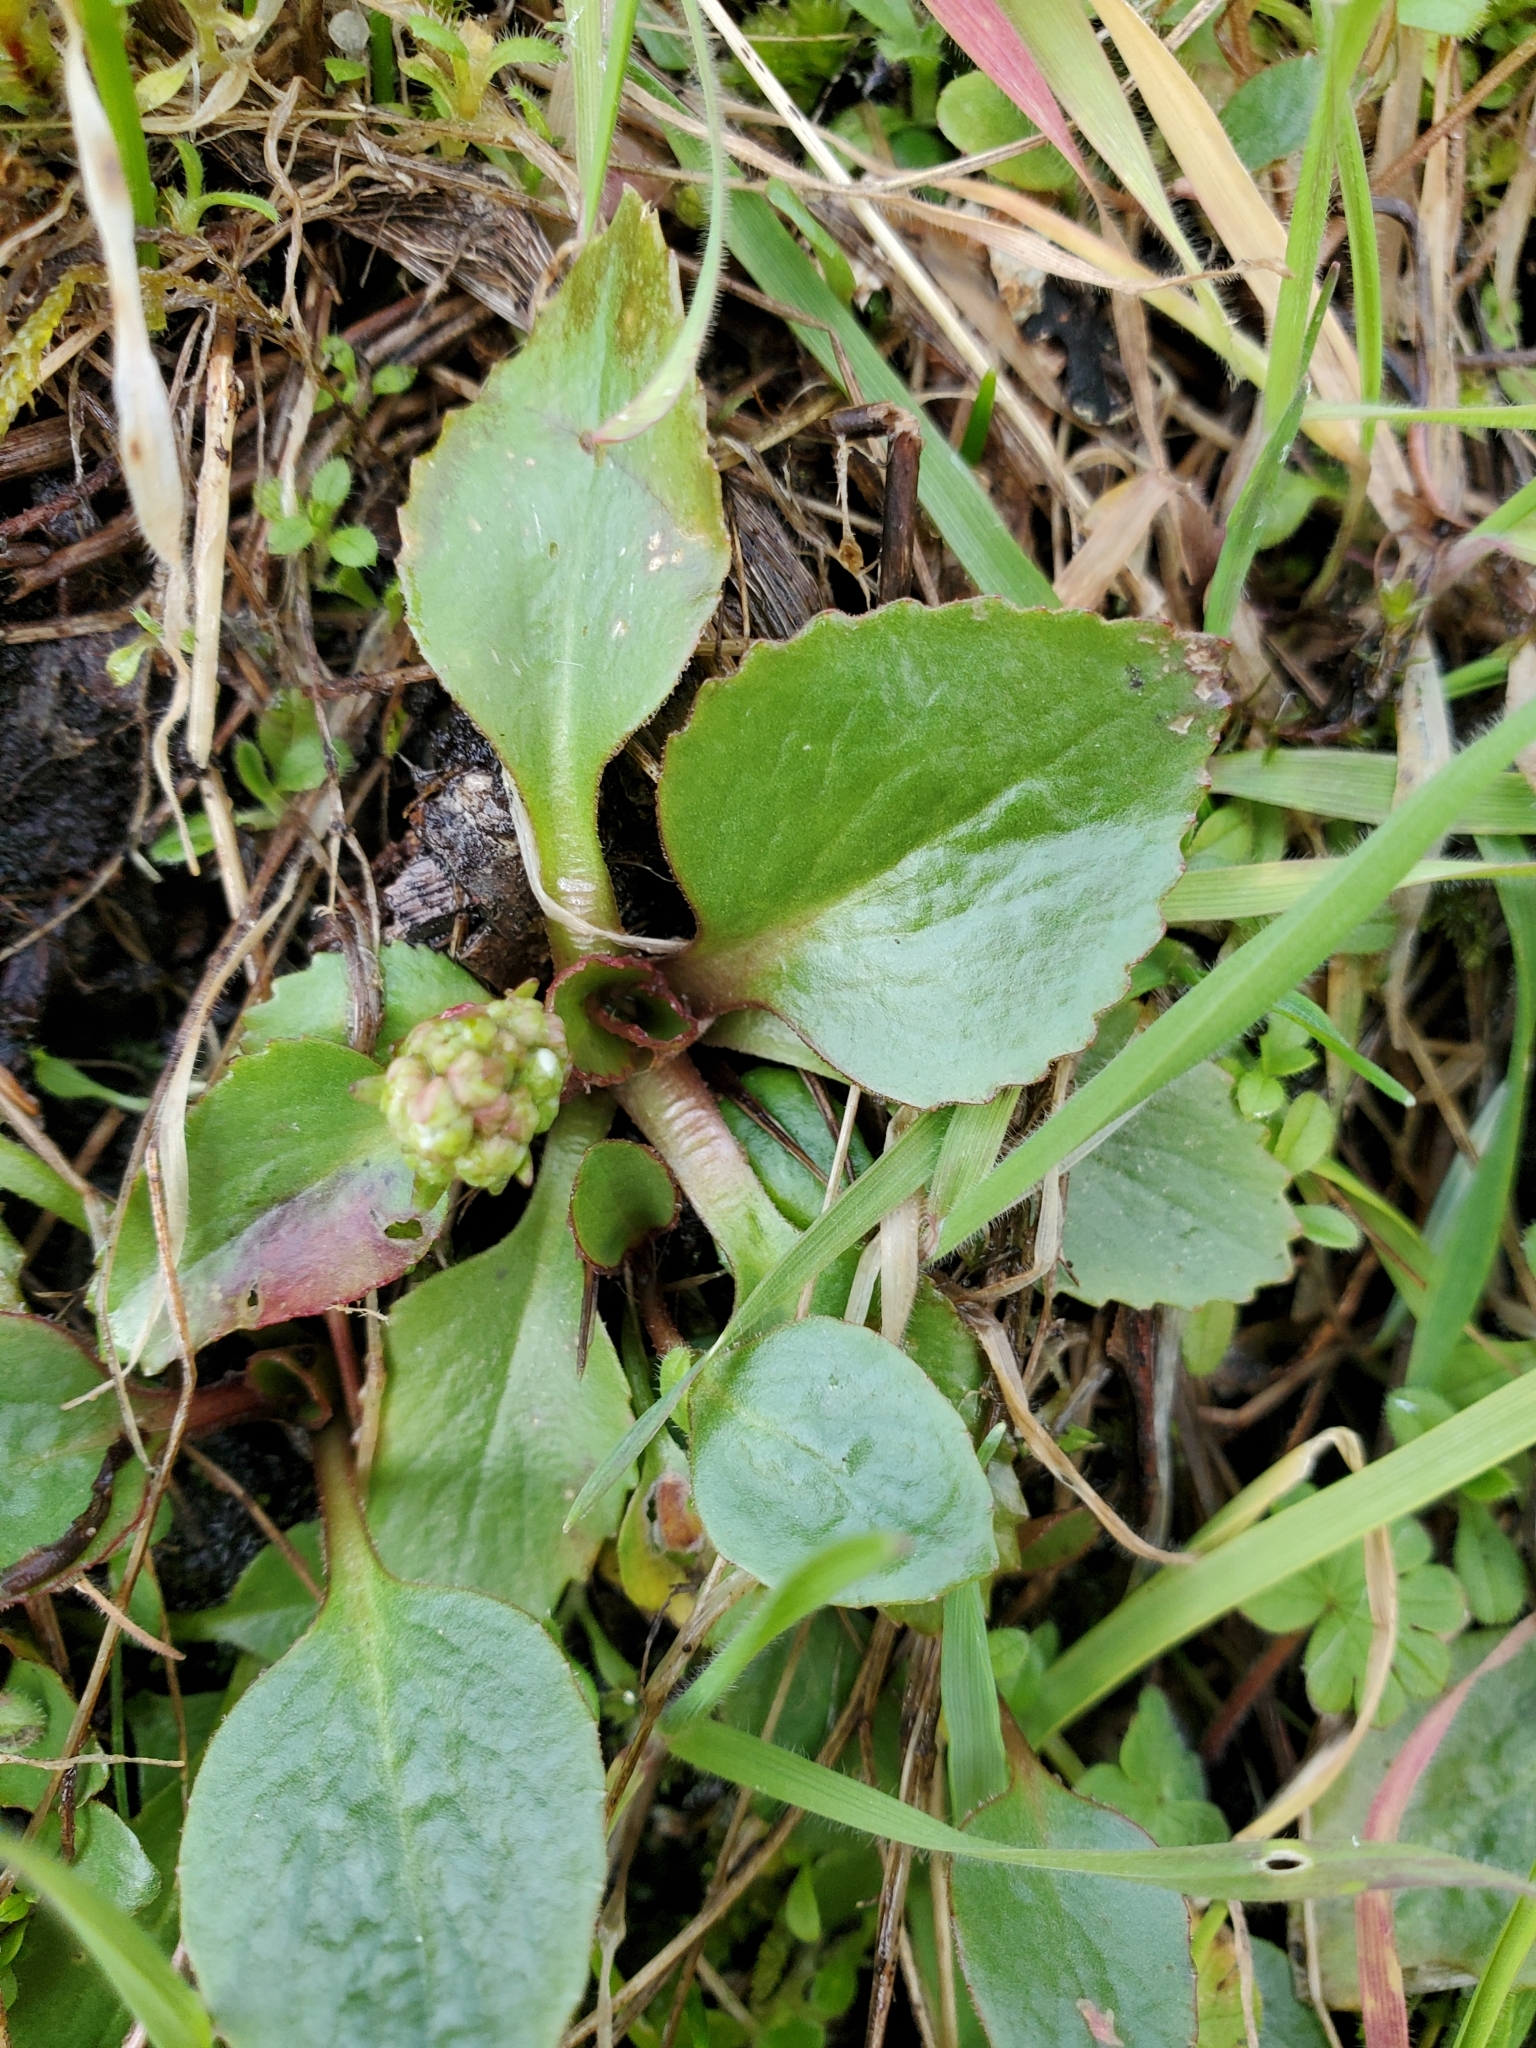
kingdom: Plantae
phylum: Tracheophyta
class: Magnoliopsida
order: Saxifragales
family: Saxifragaceae
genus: Micranthes
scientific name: Micranthes integrifolia
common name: Wholeleaf saxifrage
